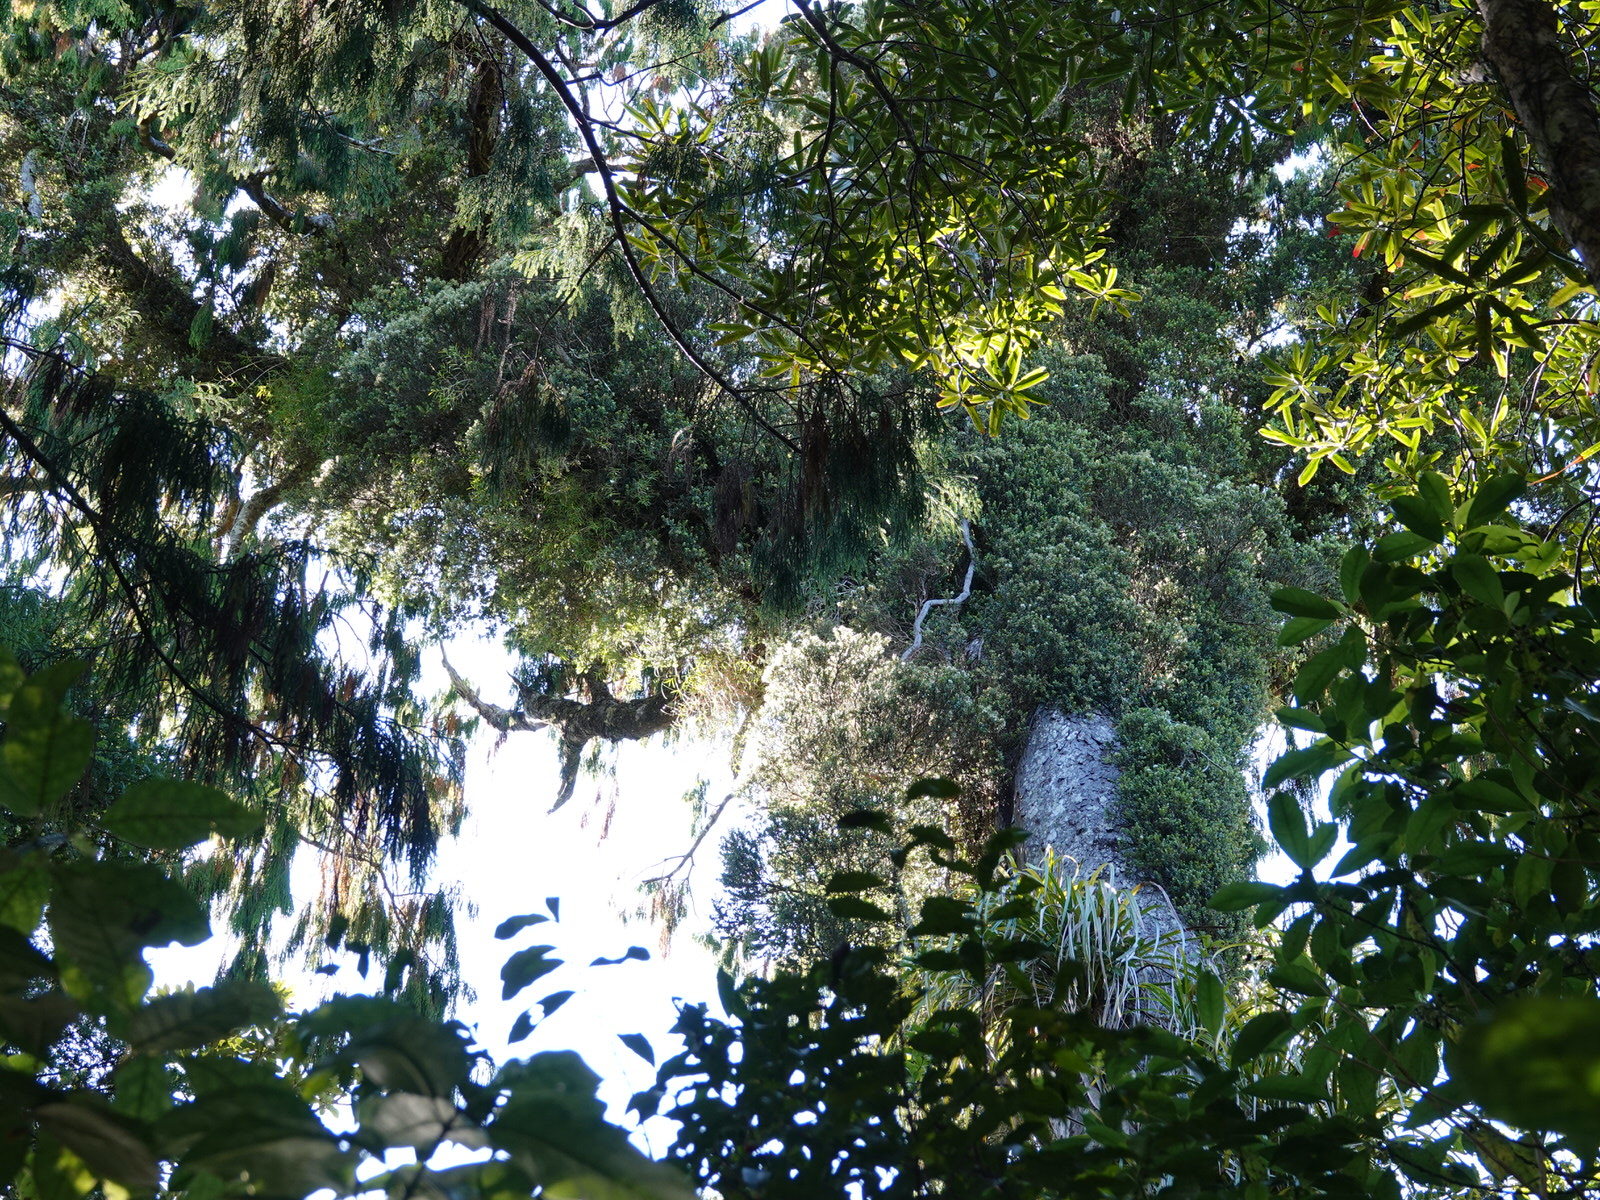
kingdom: Plantae
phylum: Tracheophyta
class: Magnoliopsida
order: Myrtales
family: Myrtaceae
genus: Metrosideros
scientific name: Metrosideros perforata
